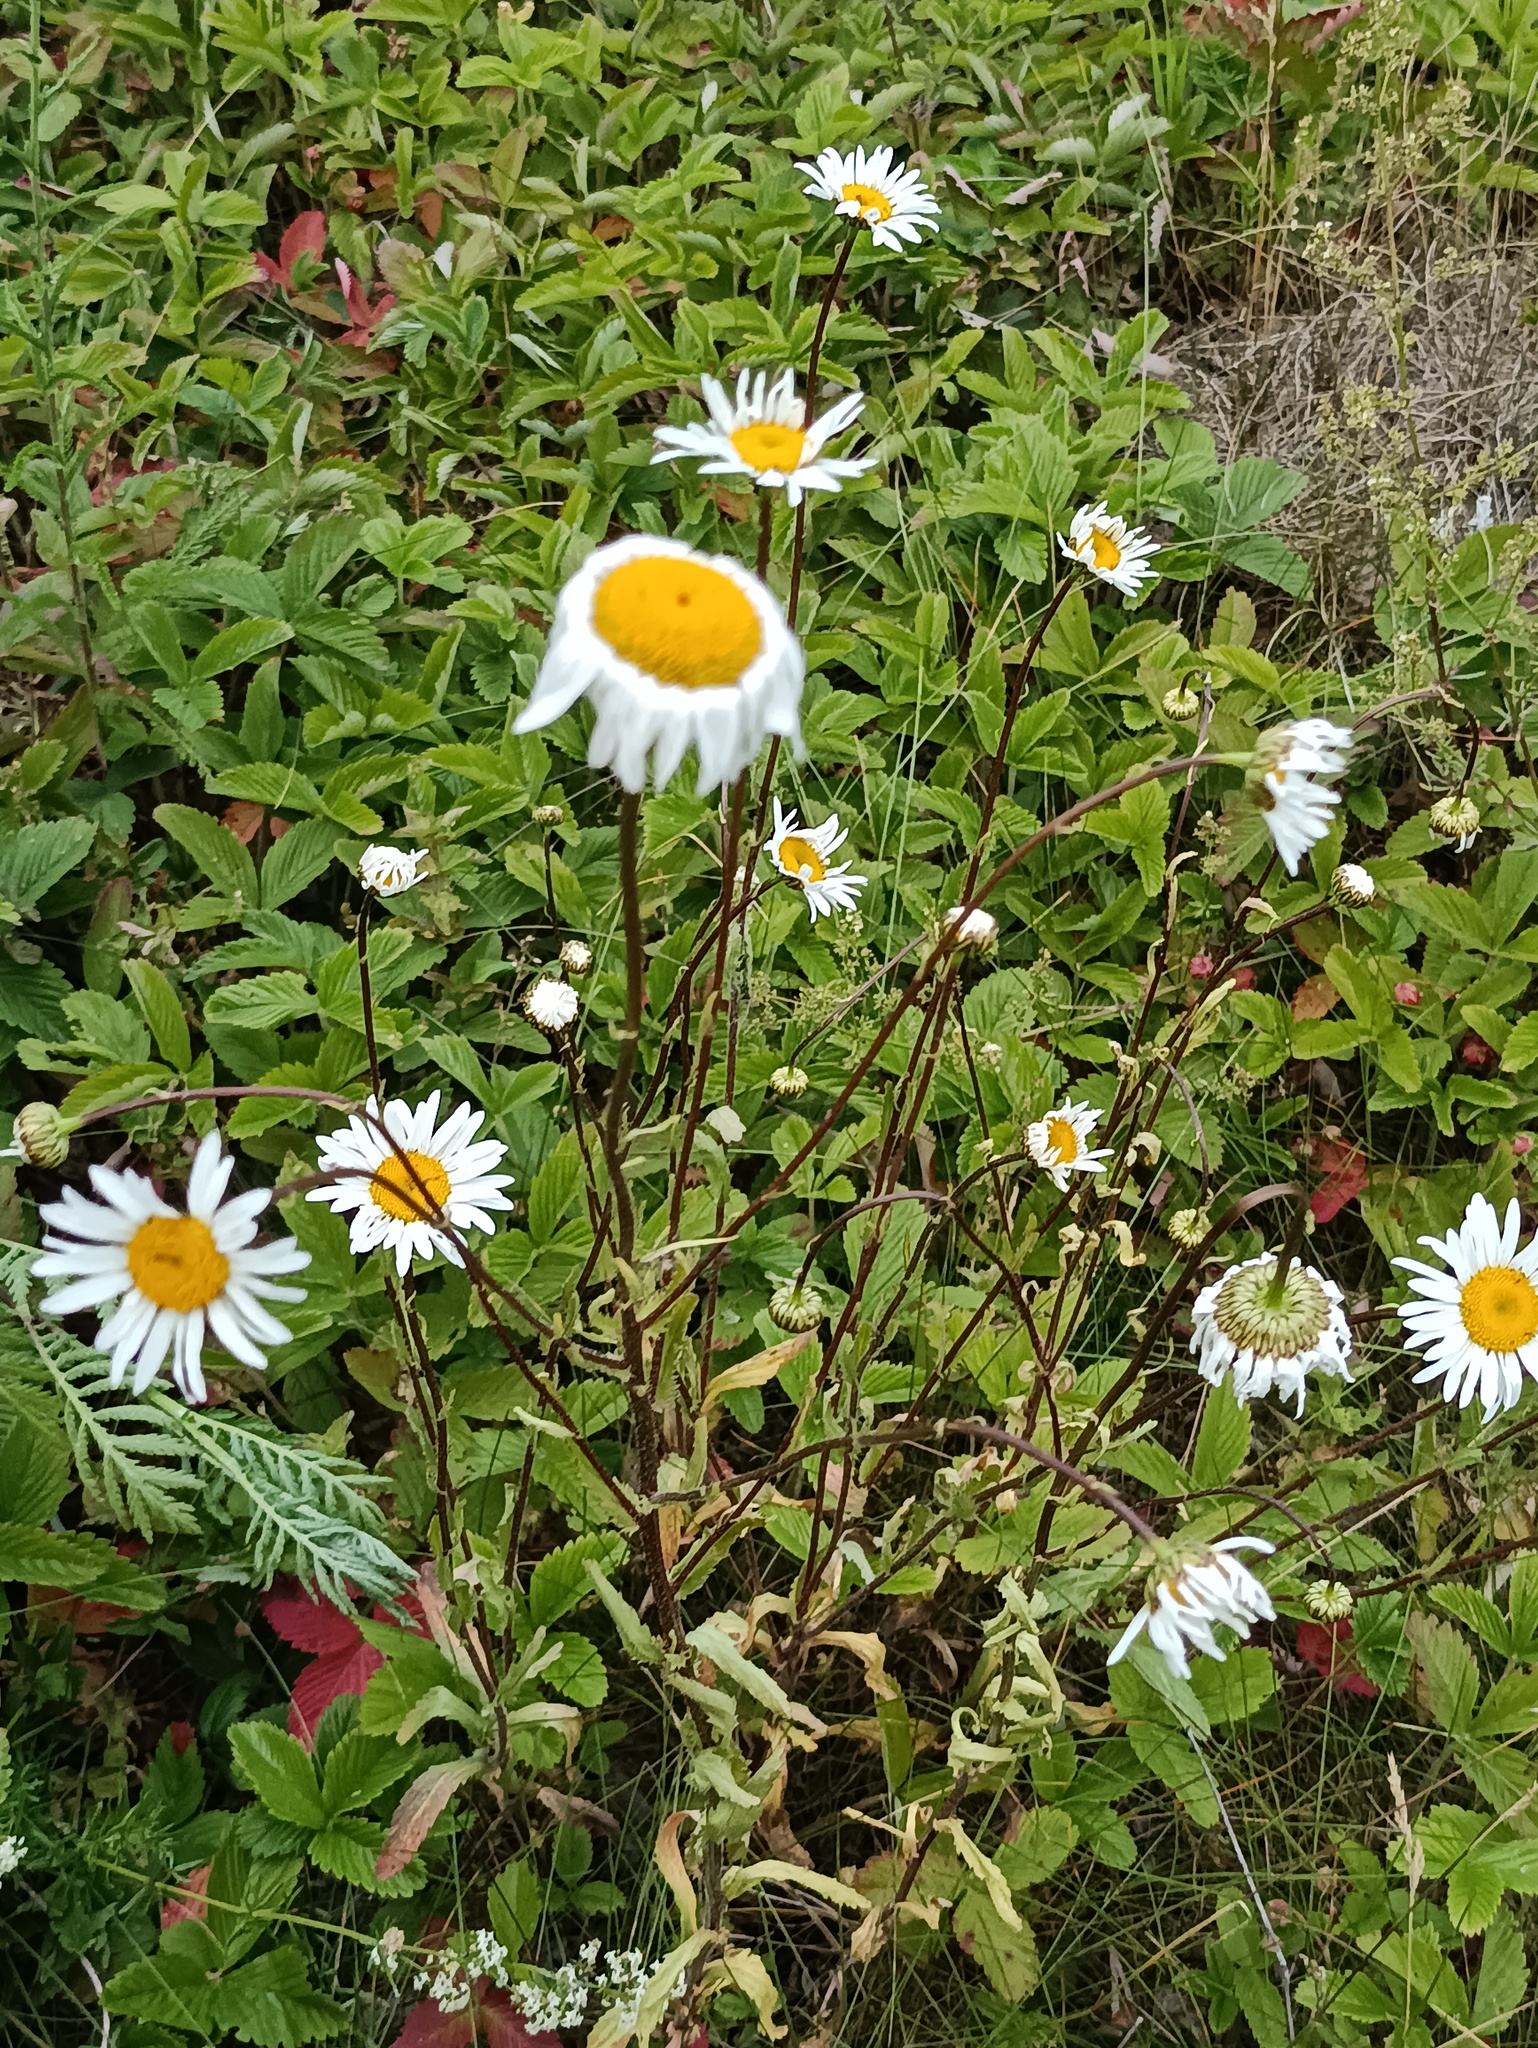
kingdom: Plantae
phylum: Tracheophyta
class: Magnoliopsida
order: Asterales
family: Asteraceae
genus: Leucanthemum
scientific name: Leucanthemum vulgare
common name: Oxeye daisy
